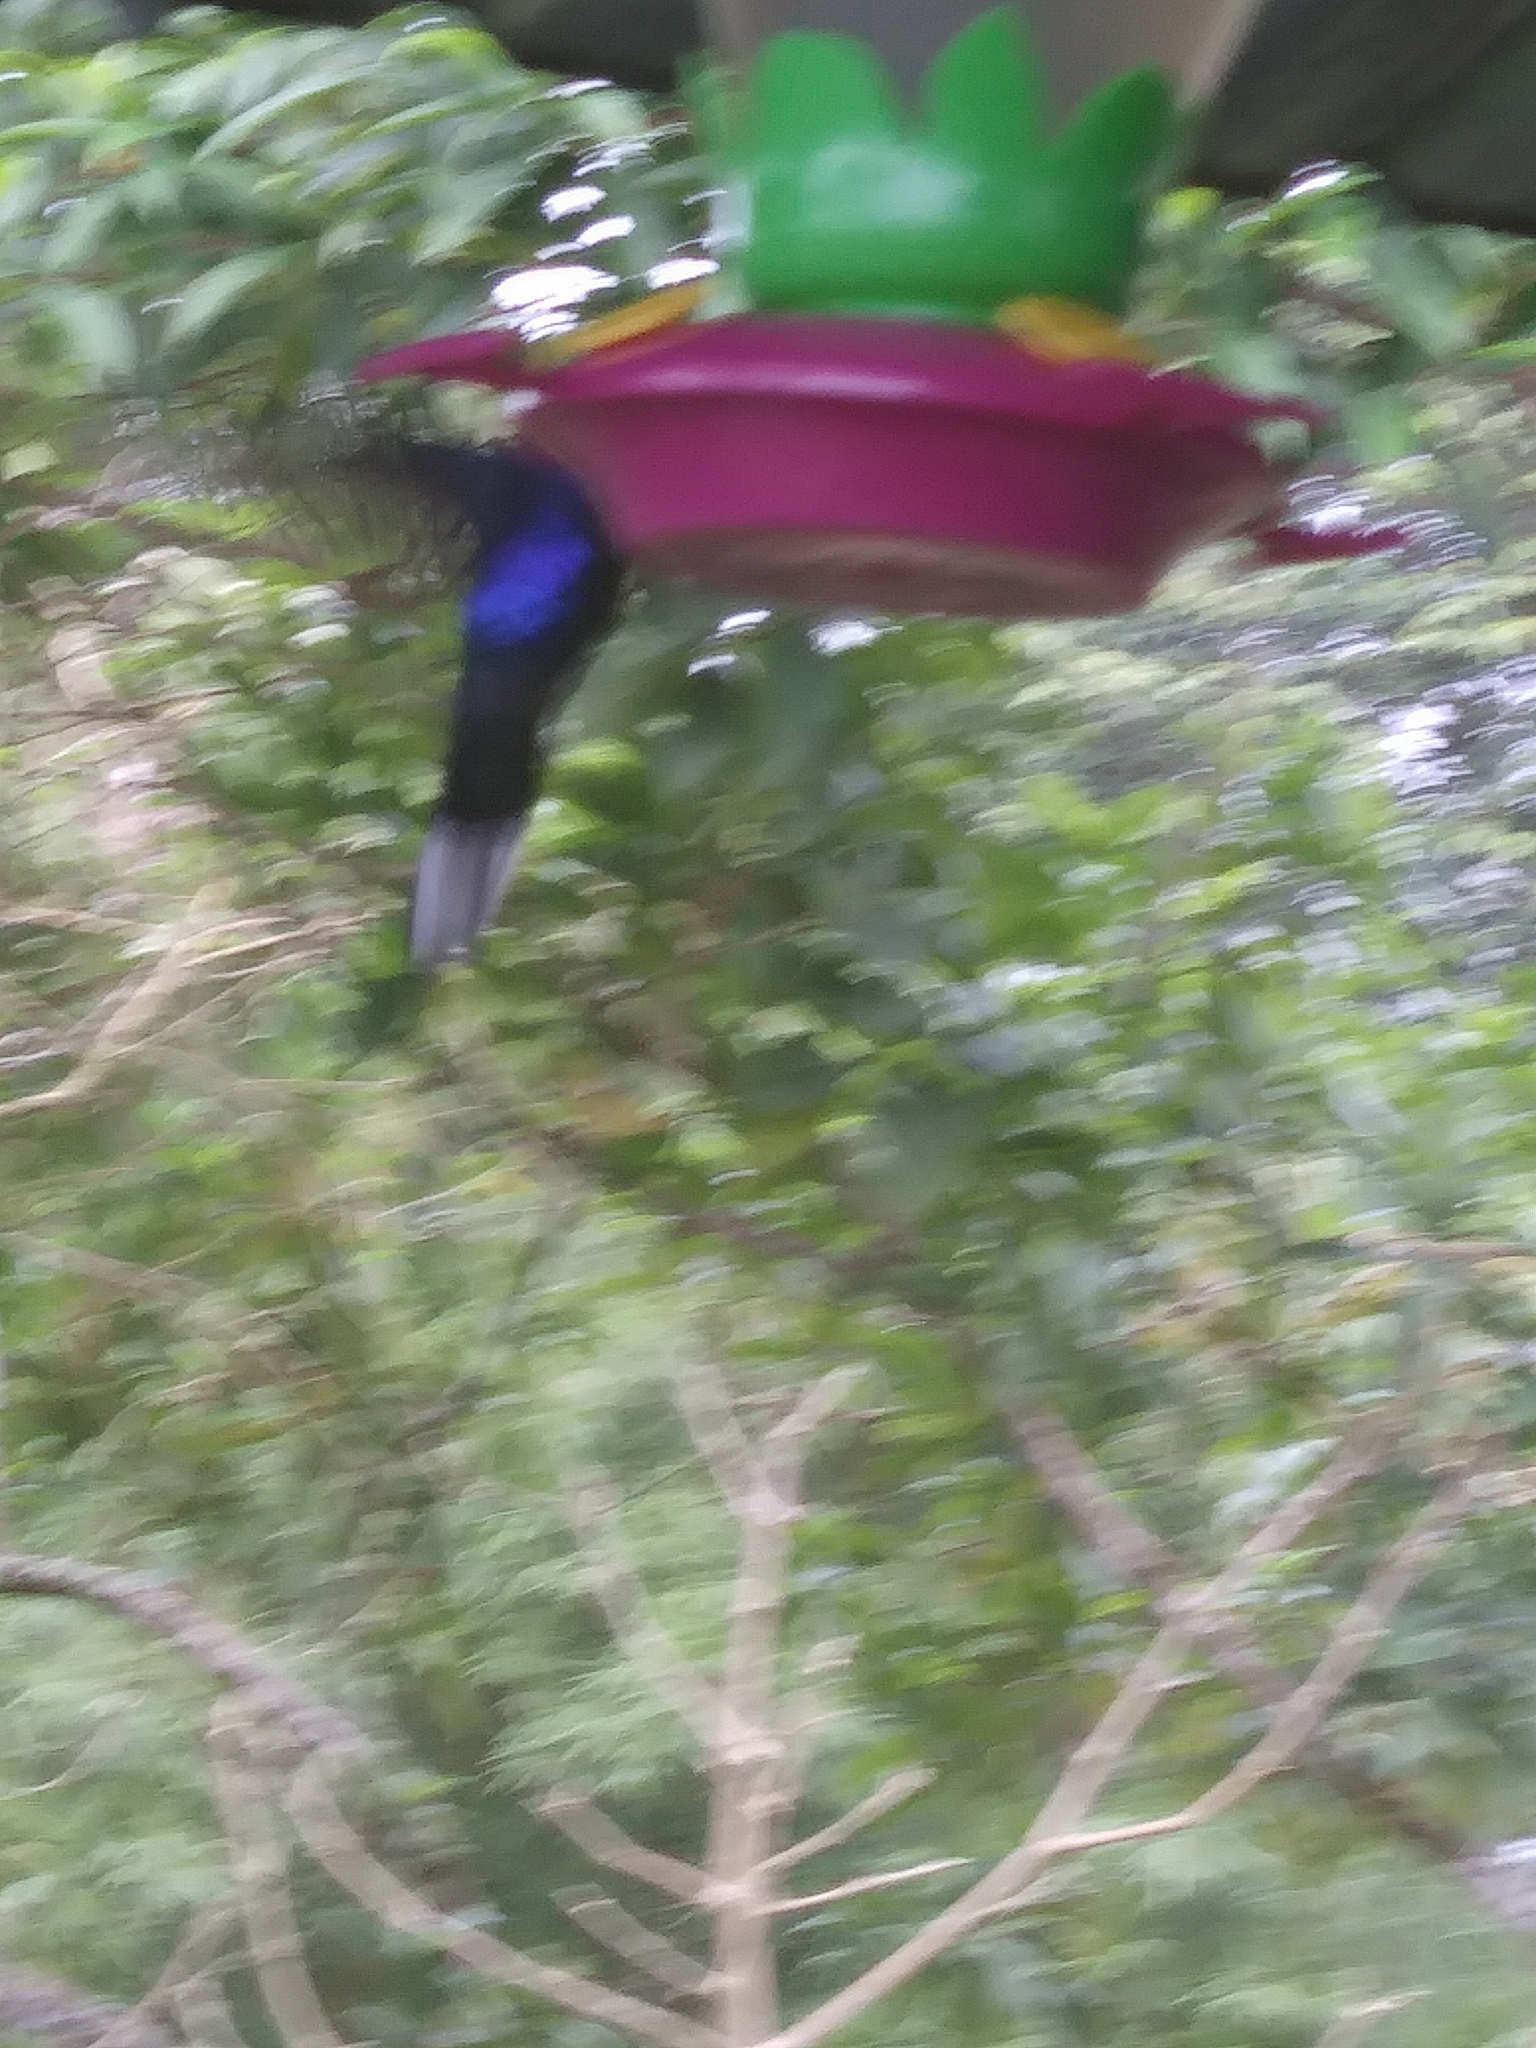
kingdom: Animalia
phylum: Chordata
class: Aves
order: Apodiformes
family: Trochilidae
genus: Campylopterus
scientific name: Campylopterus hemileucurus
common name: Violet sabrewing
